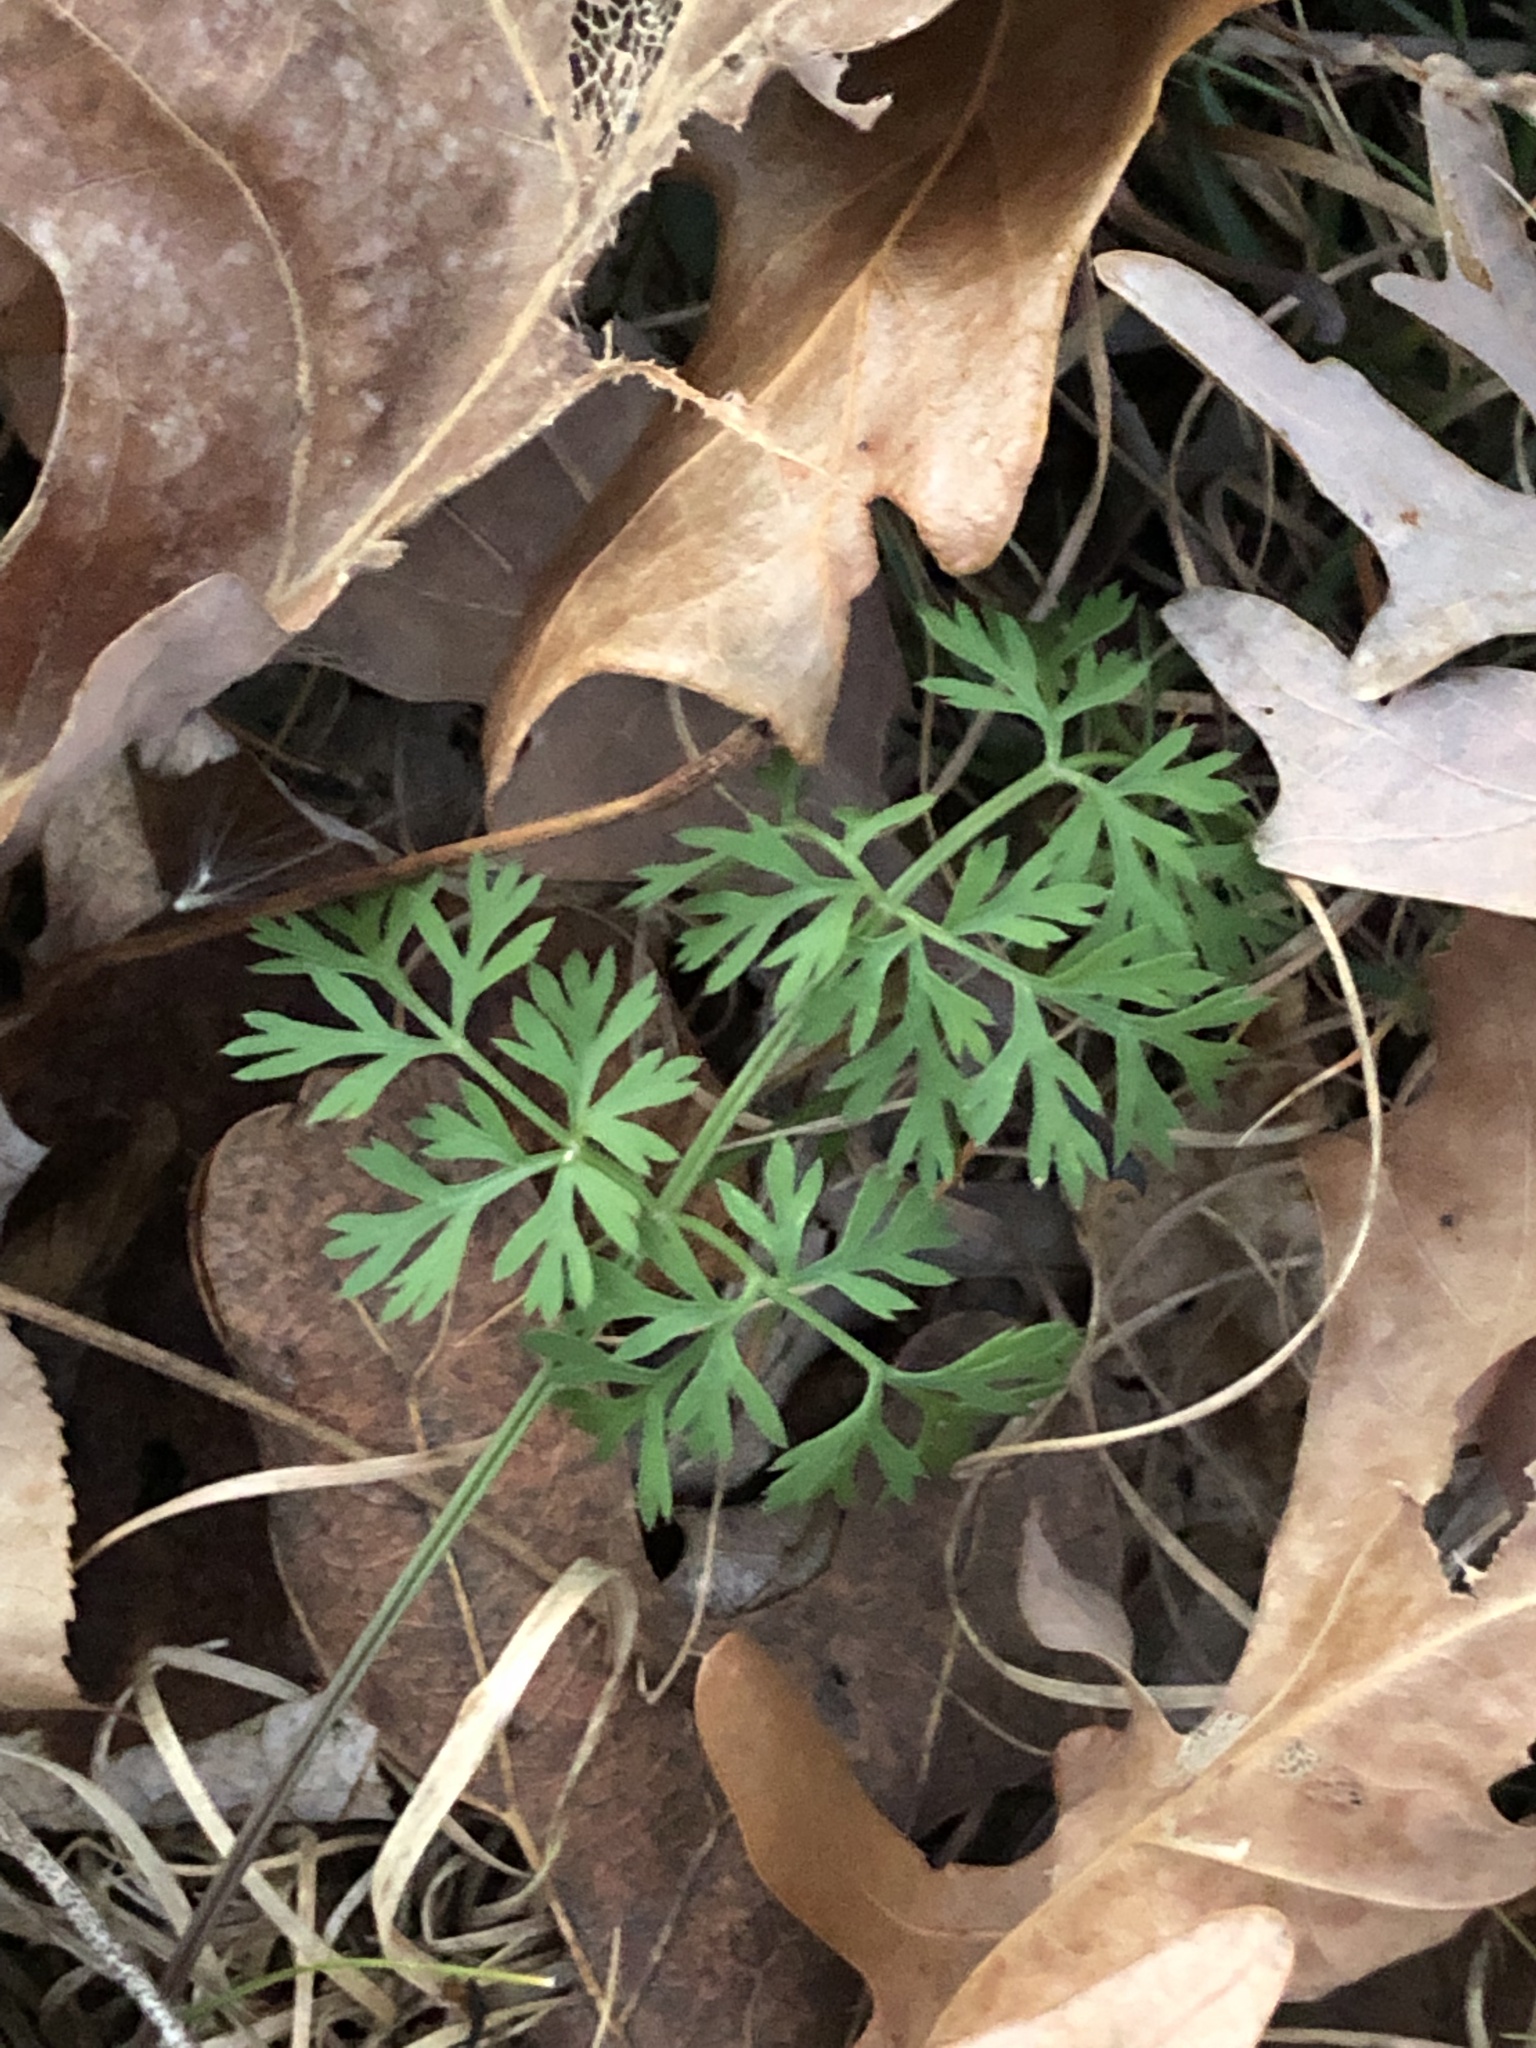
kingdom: Plantae
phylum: Tracheophyta
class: Magnoliopsida
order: Apiales
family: Apiaceae
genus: Daucus
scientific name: Daucus carota
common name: Wild carrot
